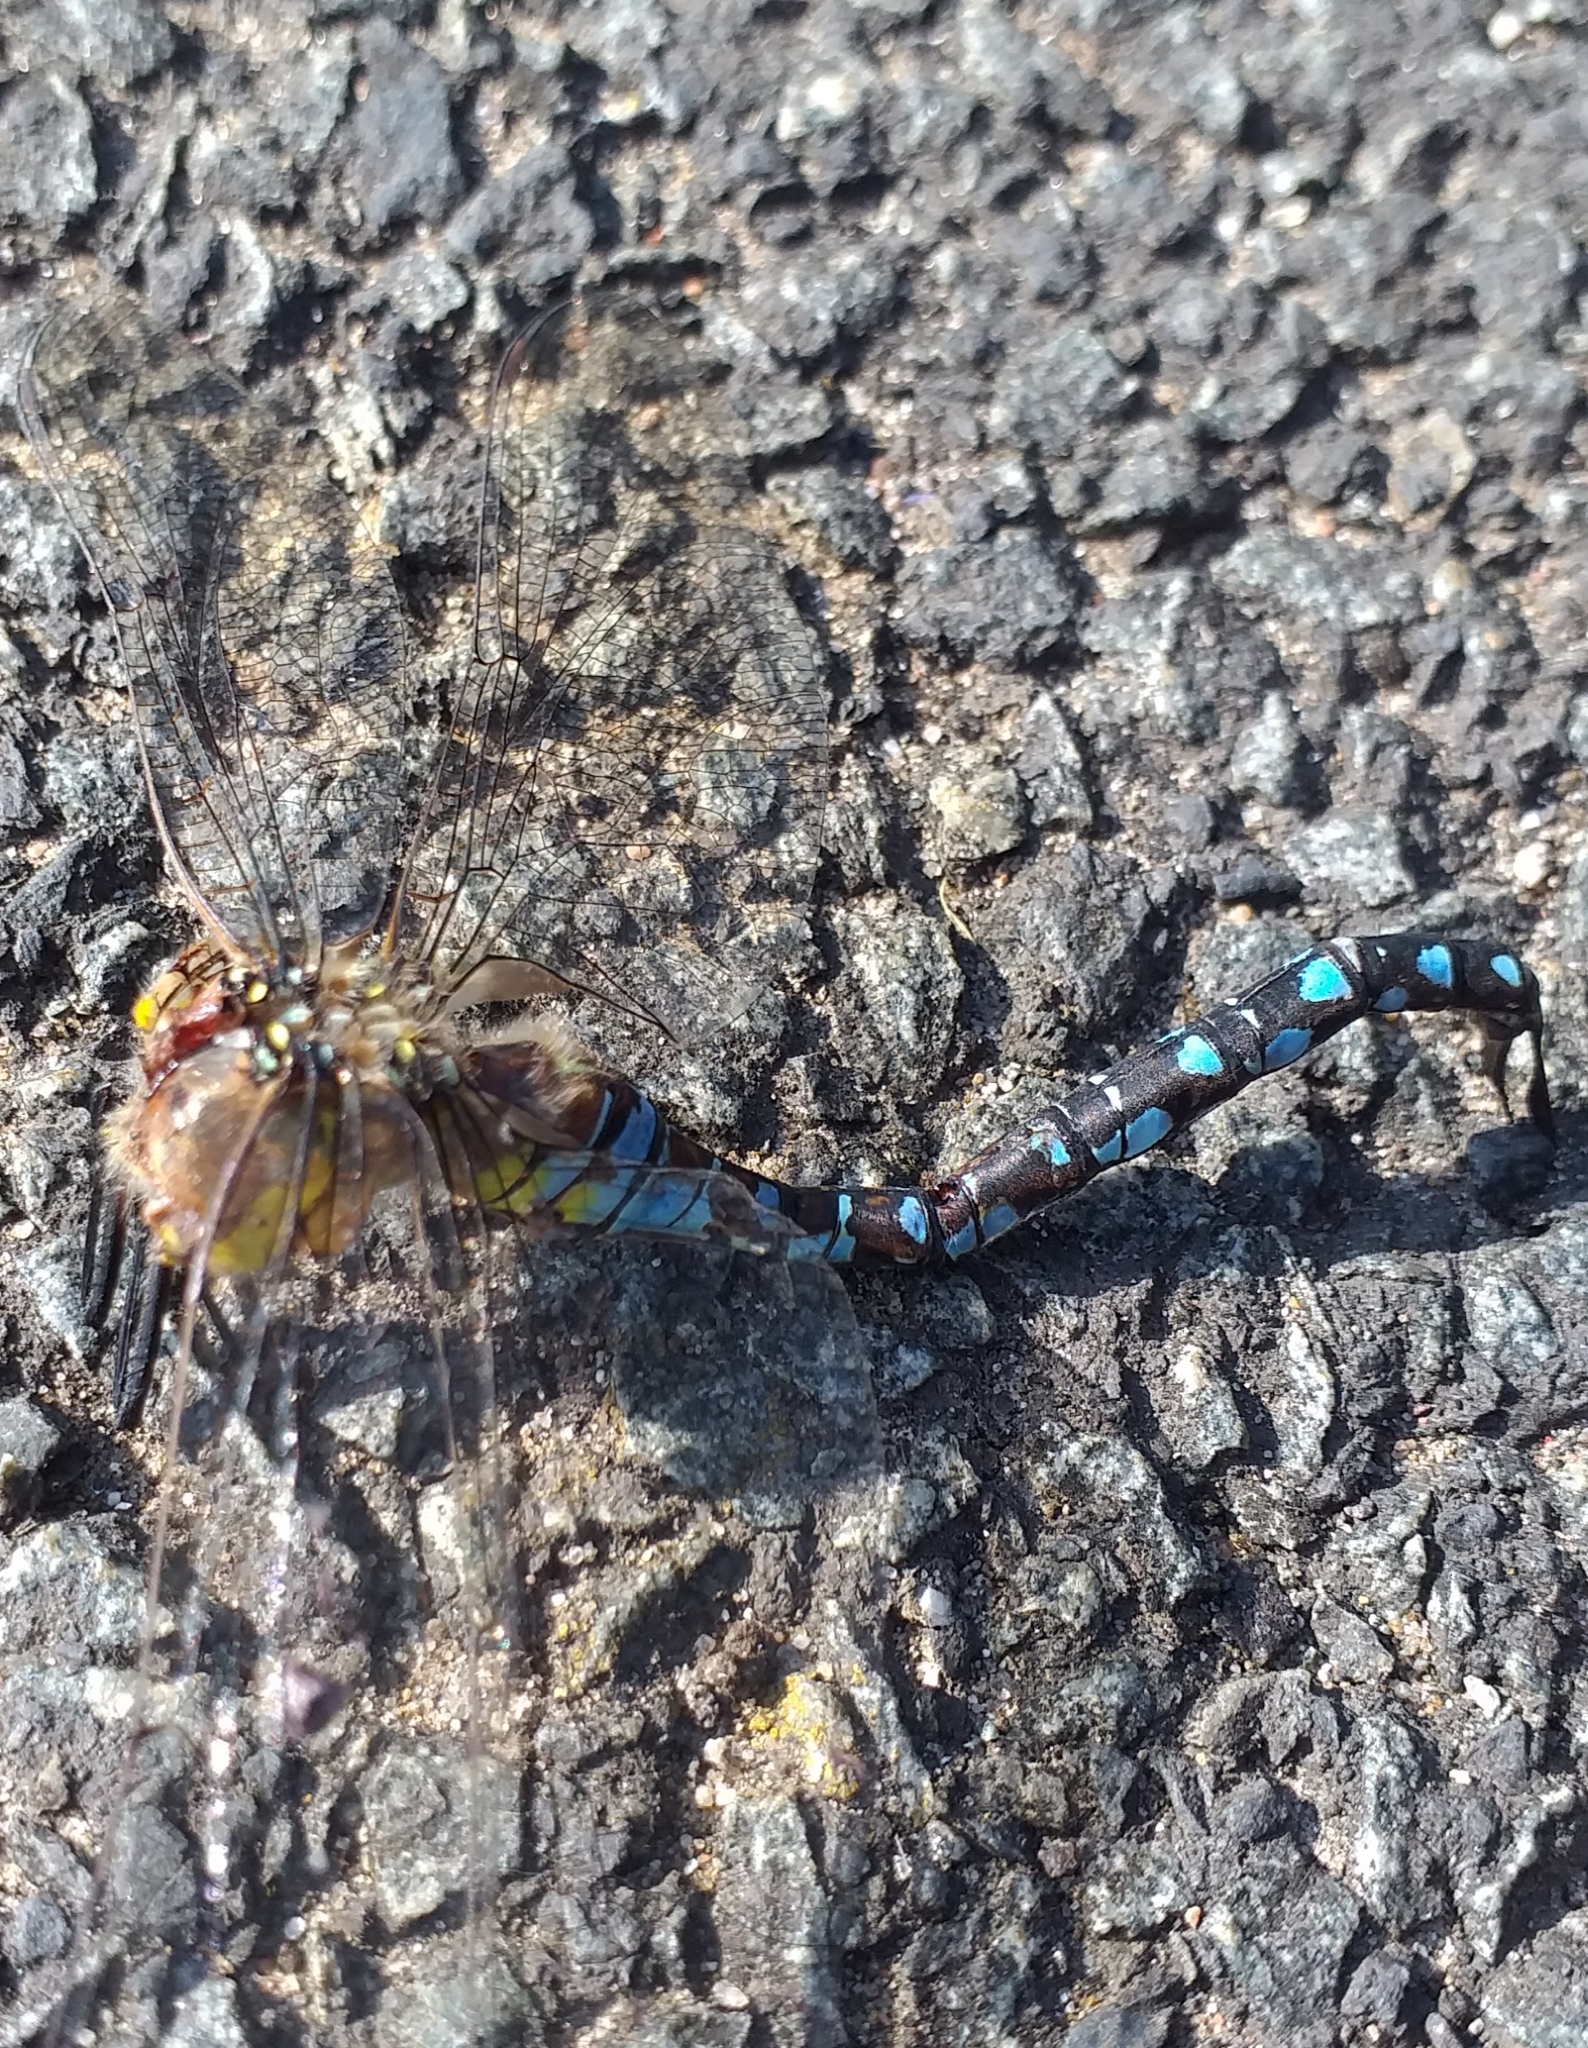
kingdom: Animalia
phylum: Arthropoda
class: Insecta
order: Odonata
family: Aeshnidae
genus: Aeshna
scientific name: Aeshna mixta
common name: Migrant hawker
